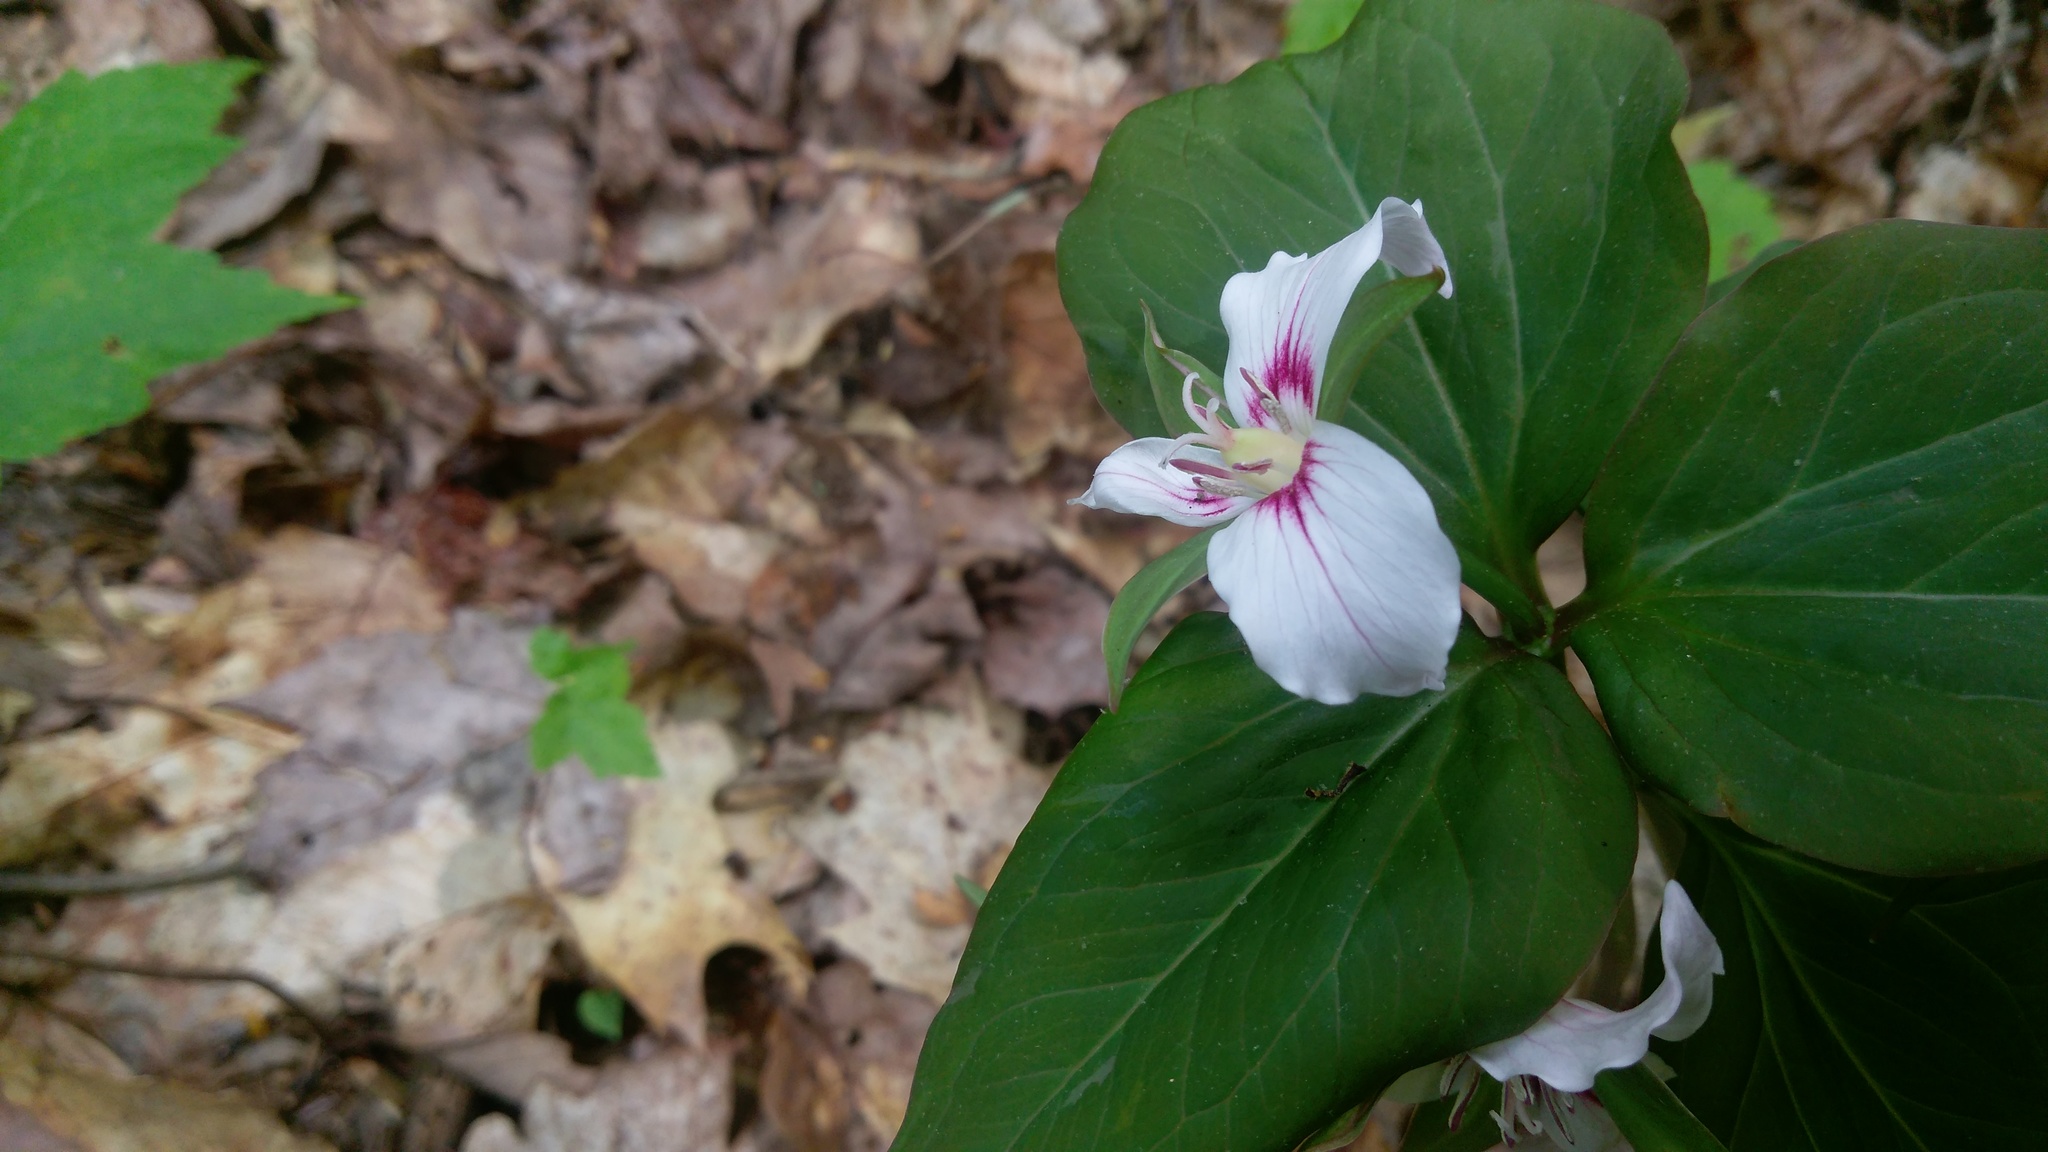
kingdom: Plantae
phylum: Tracheophyta
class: Liliopsida
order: Liliales
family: Melanthiaceae
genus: Trillium
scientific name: Trillium undulatum
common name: Paint trillium
